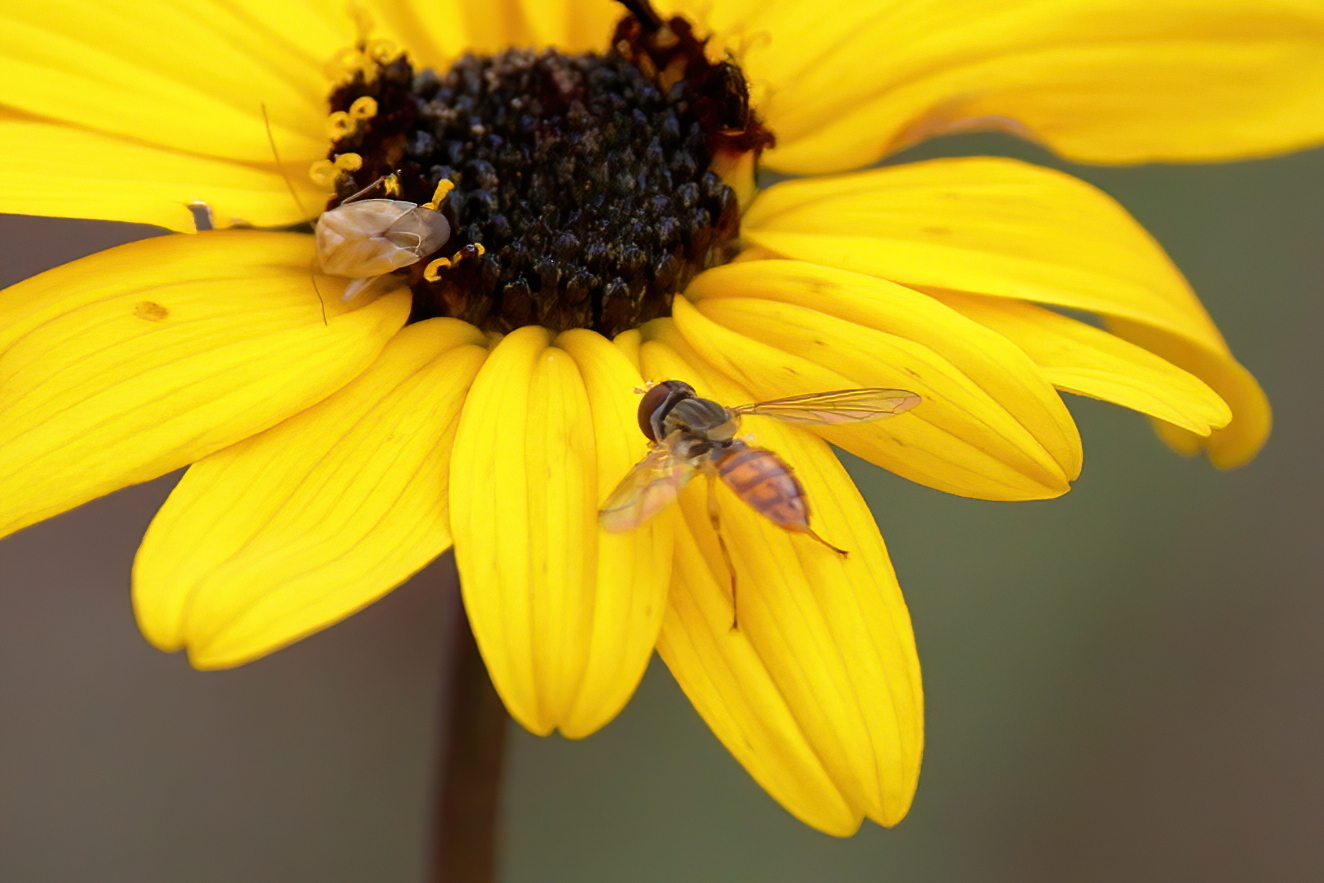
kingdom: Animalia
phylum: Arthropoda
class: Insecta
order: Diptera
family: Syrphidae
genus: Toxomerus
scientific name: Toxomerus marginatus
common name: Syrphid fly
